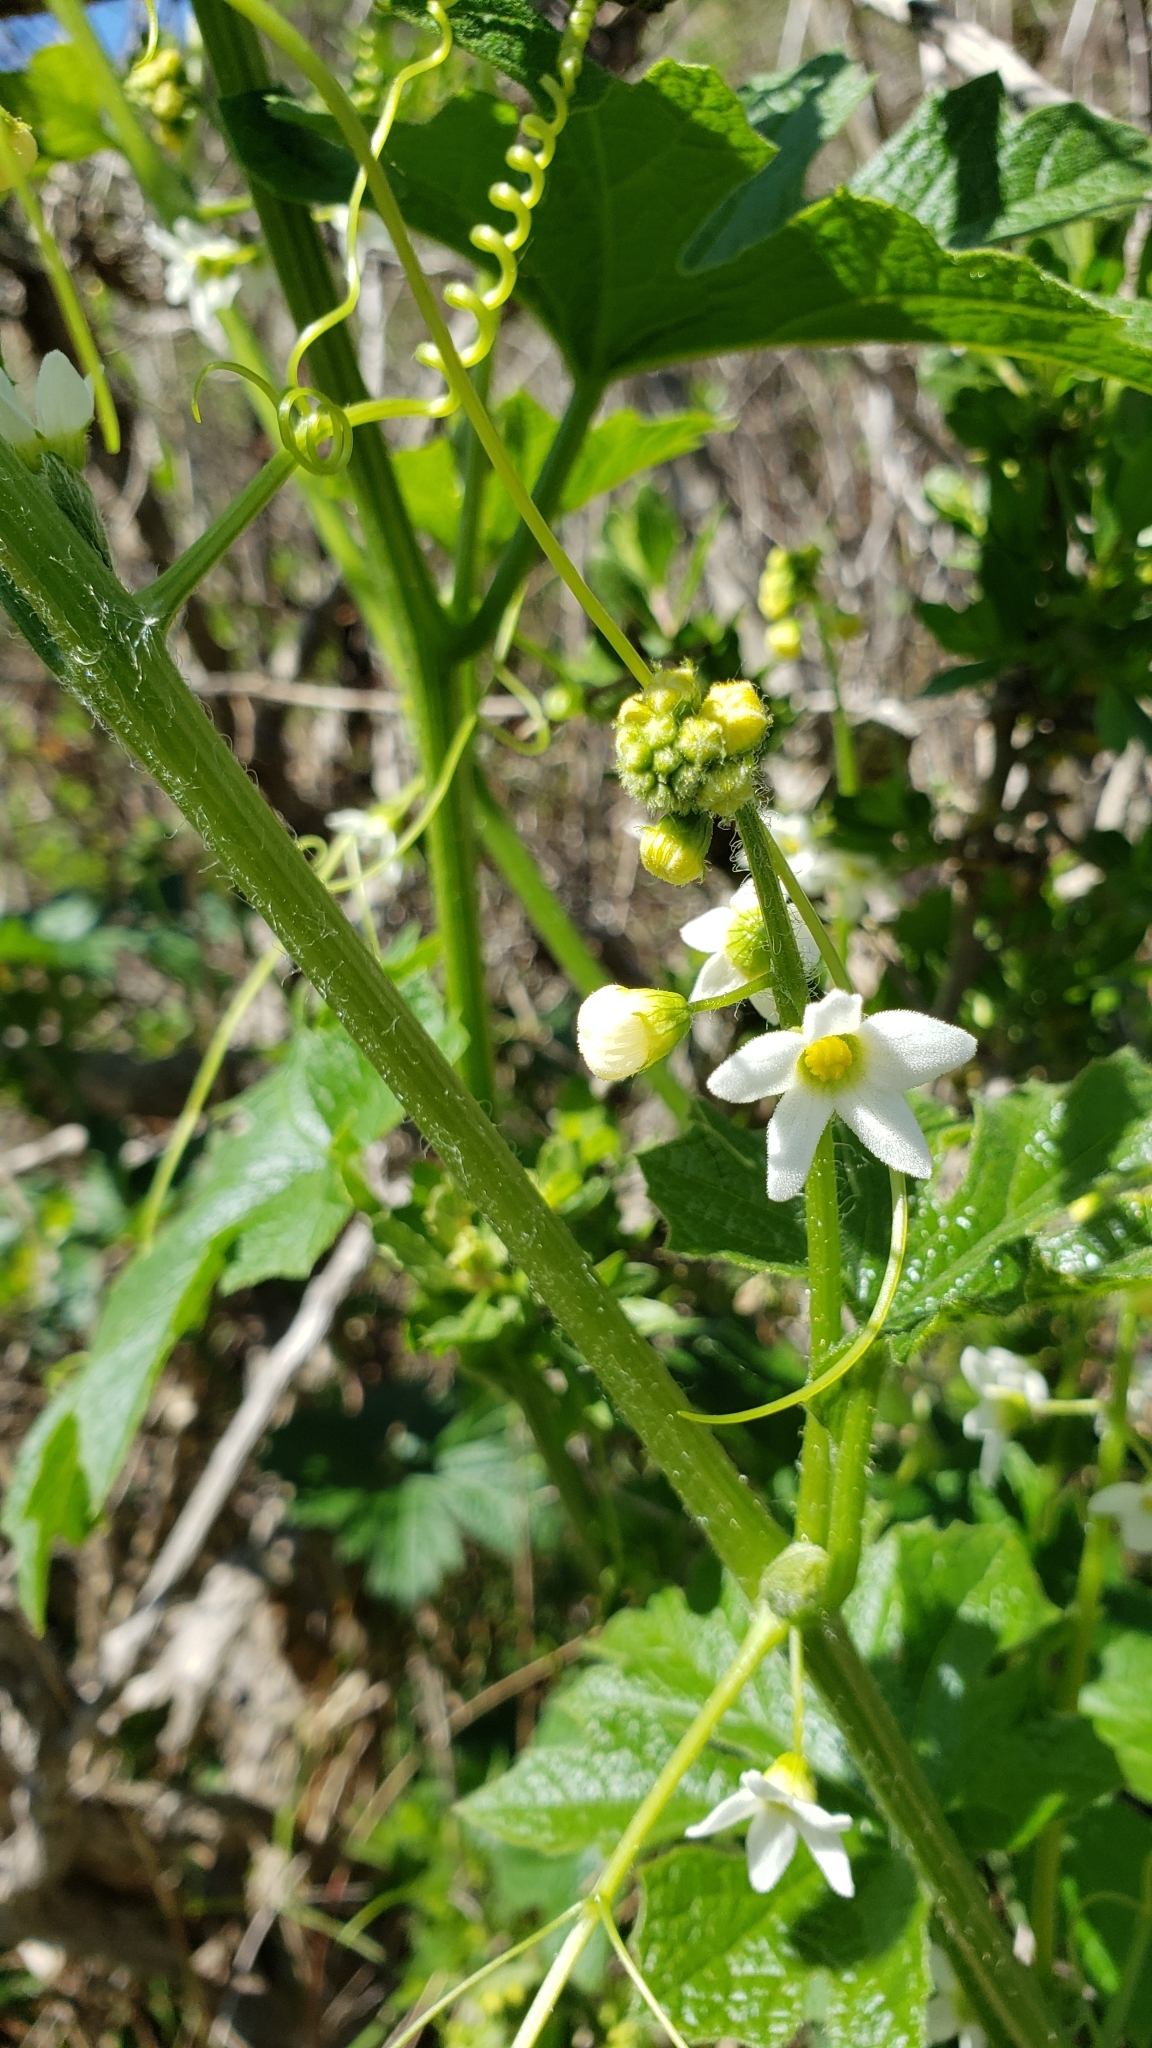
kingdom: Plantae
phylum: Tracheophyta
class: Magnoliopsida
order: Cucurbitales
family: Cucurbitaceae
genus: Marah
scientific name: Marah oregana
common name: Coastal manroot
